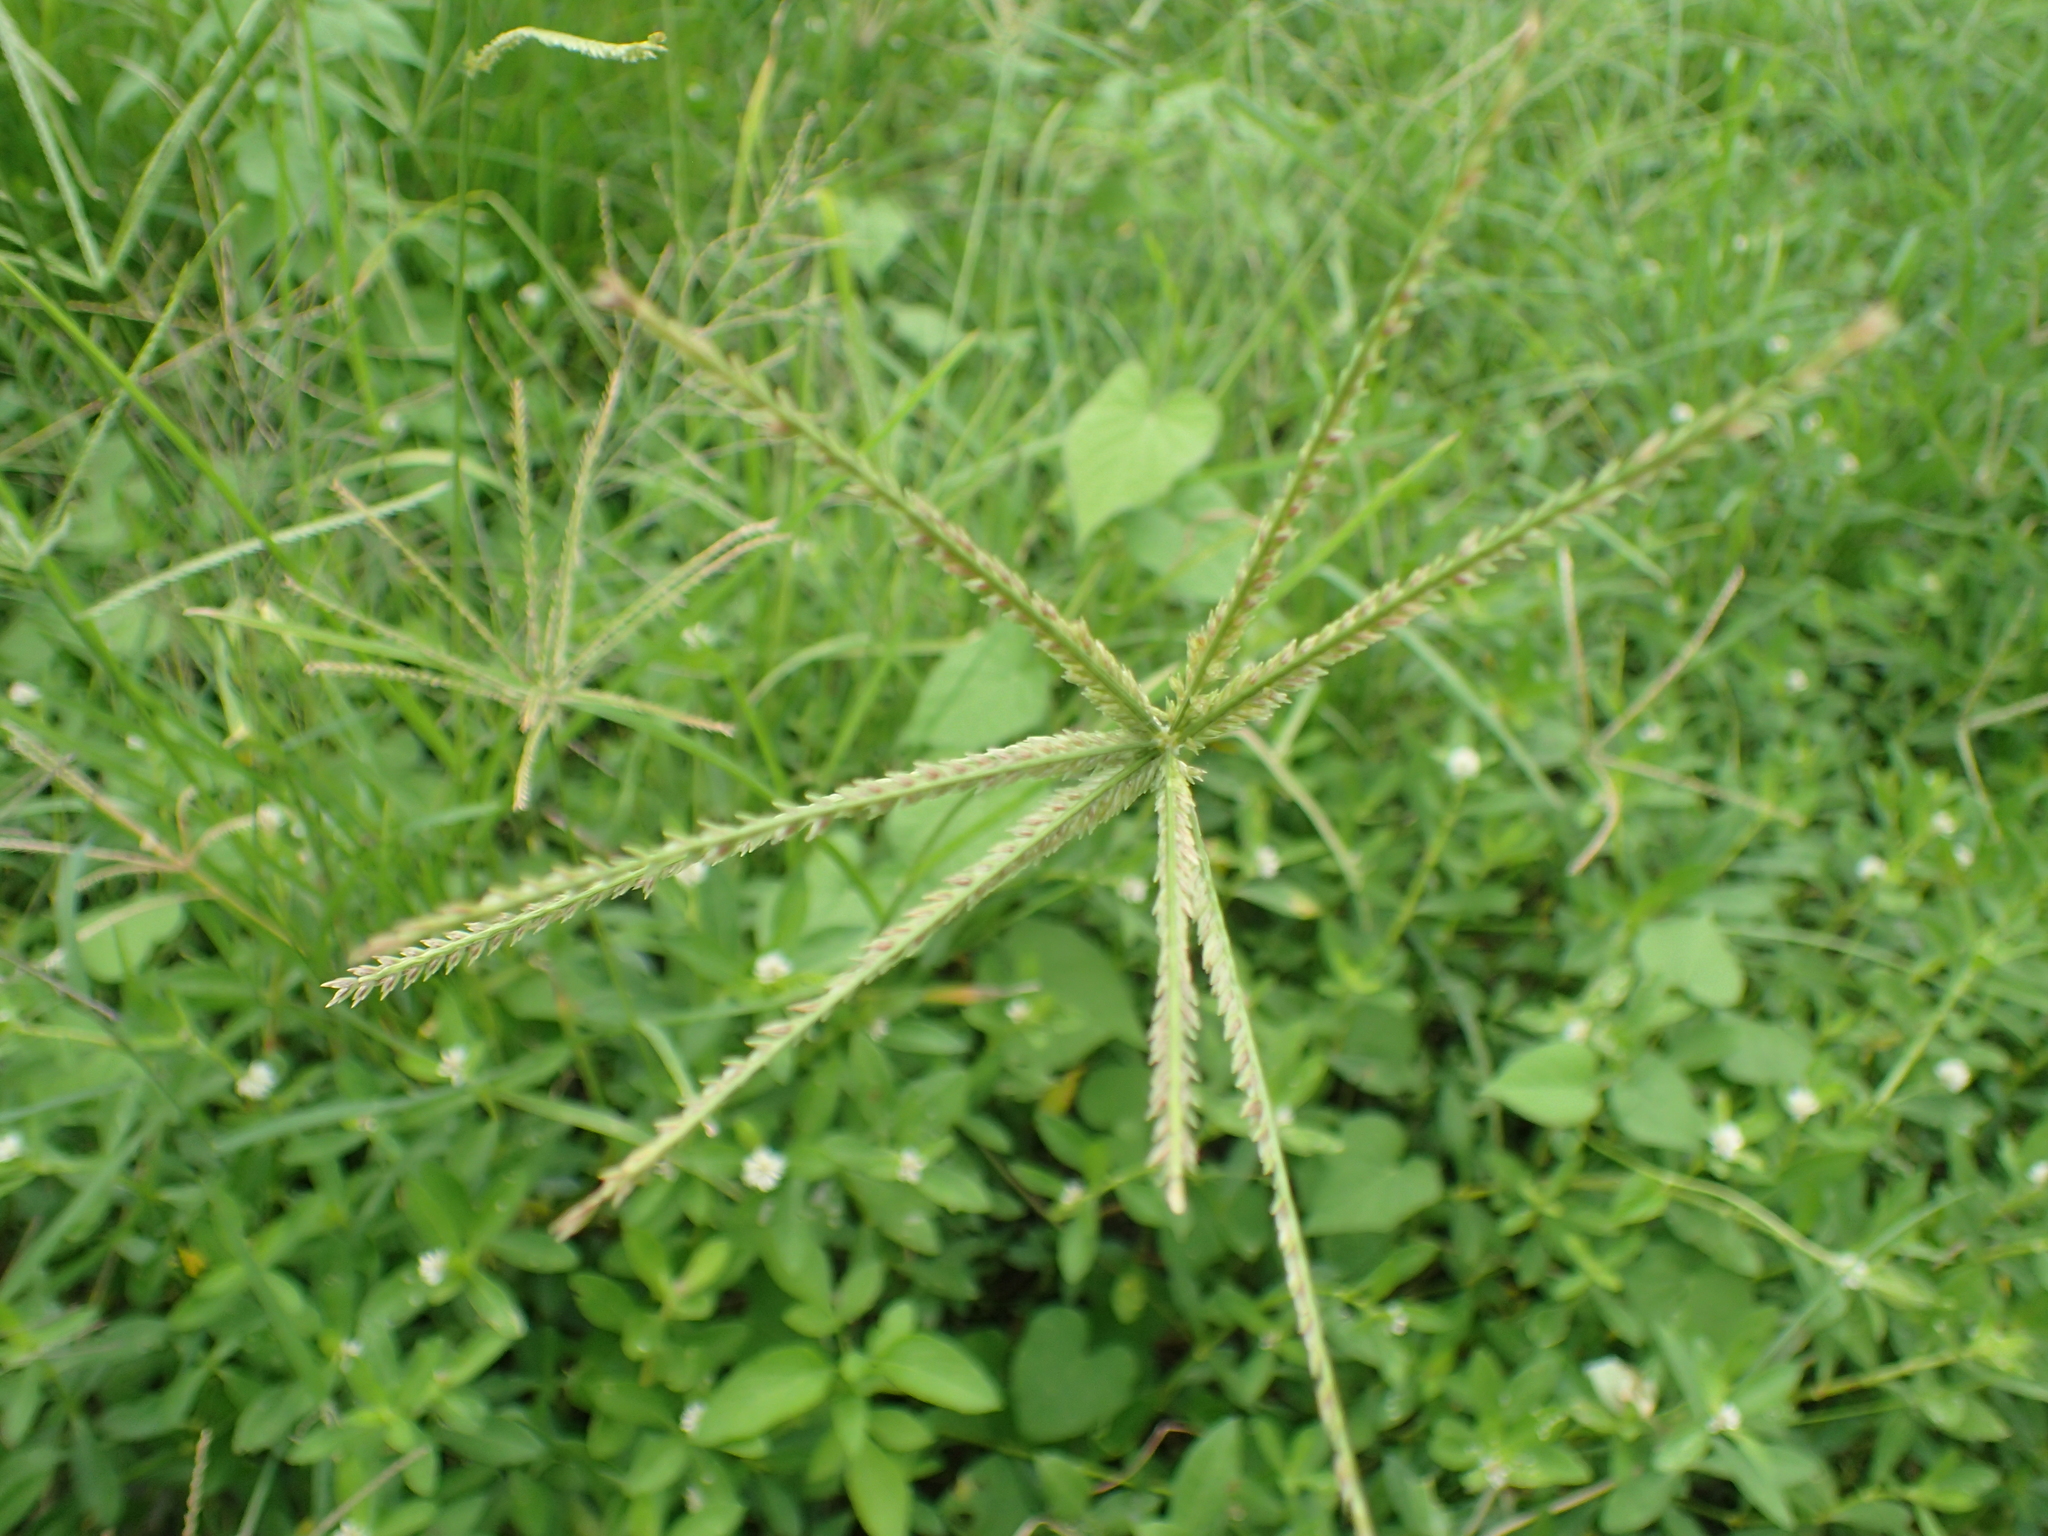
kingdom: Plantae
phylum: Tracheophyta
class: Liliopsida
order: Poales
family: Poaceae
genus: Eleusine
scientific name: Eleusine indica
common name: Yard-grass
